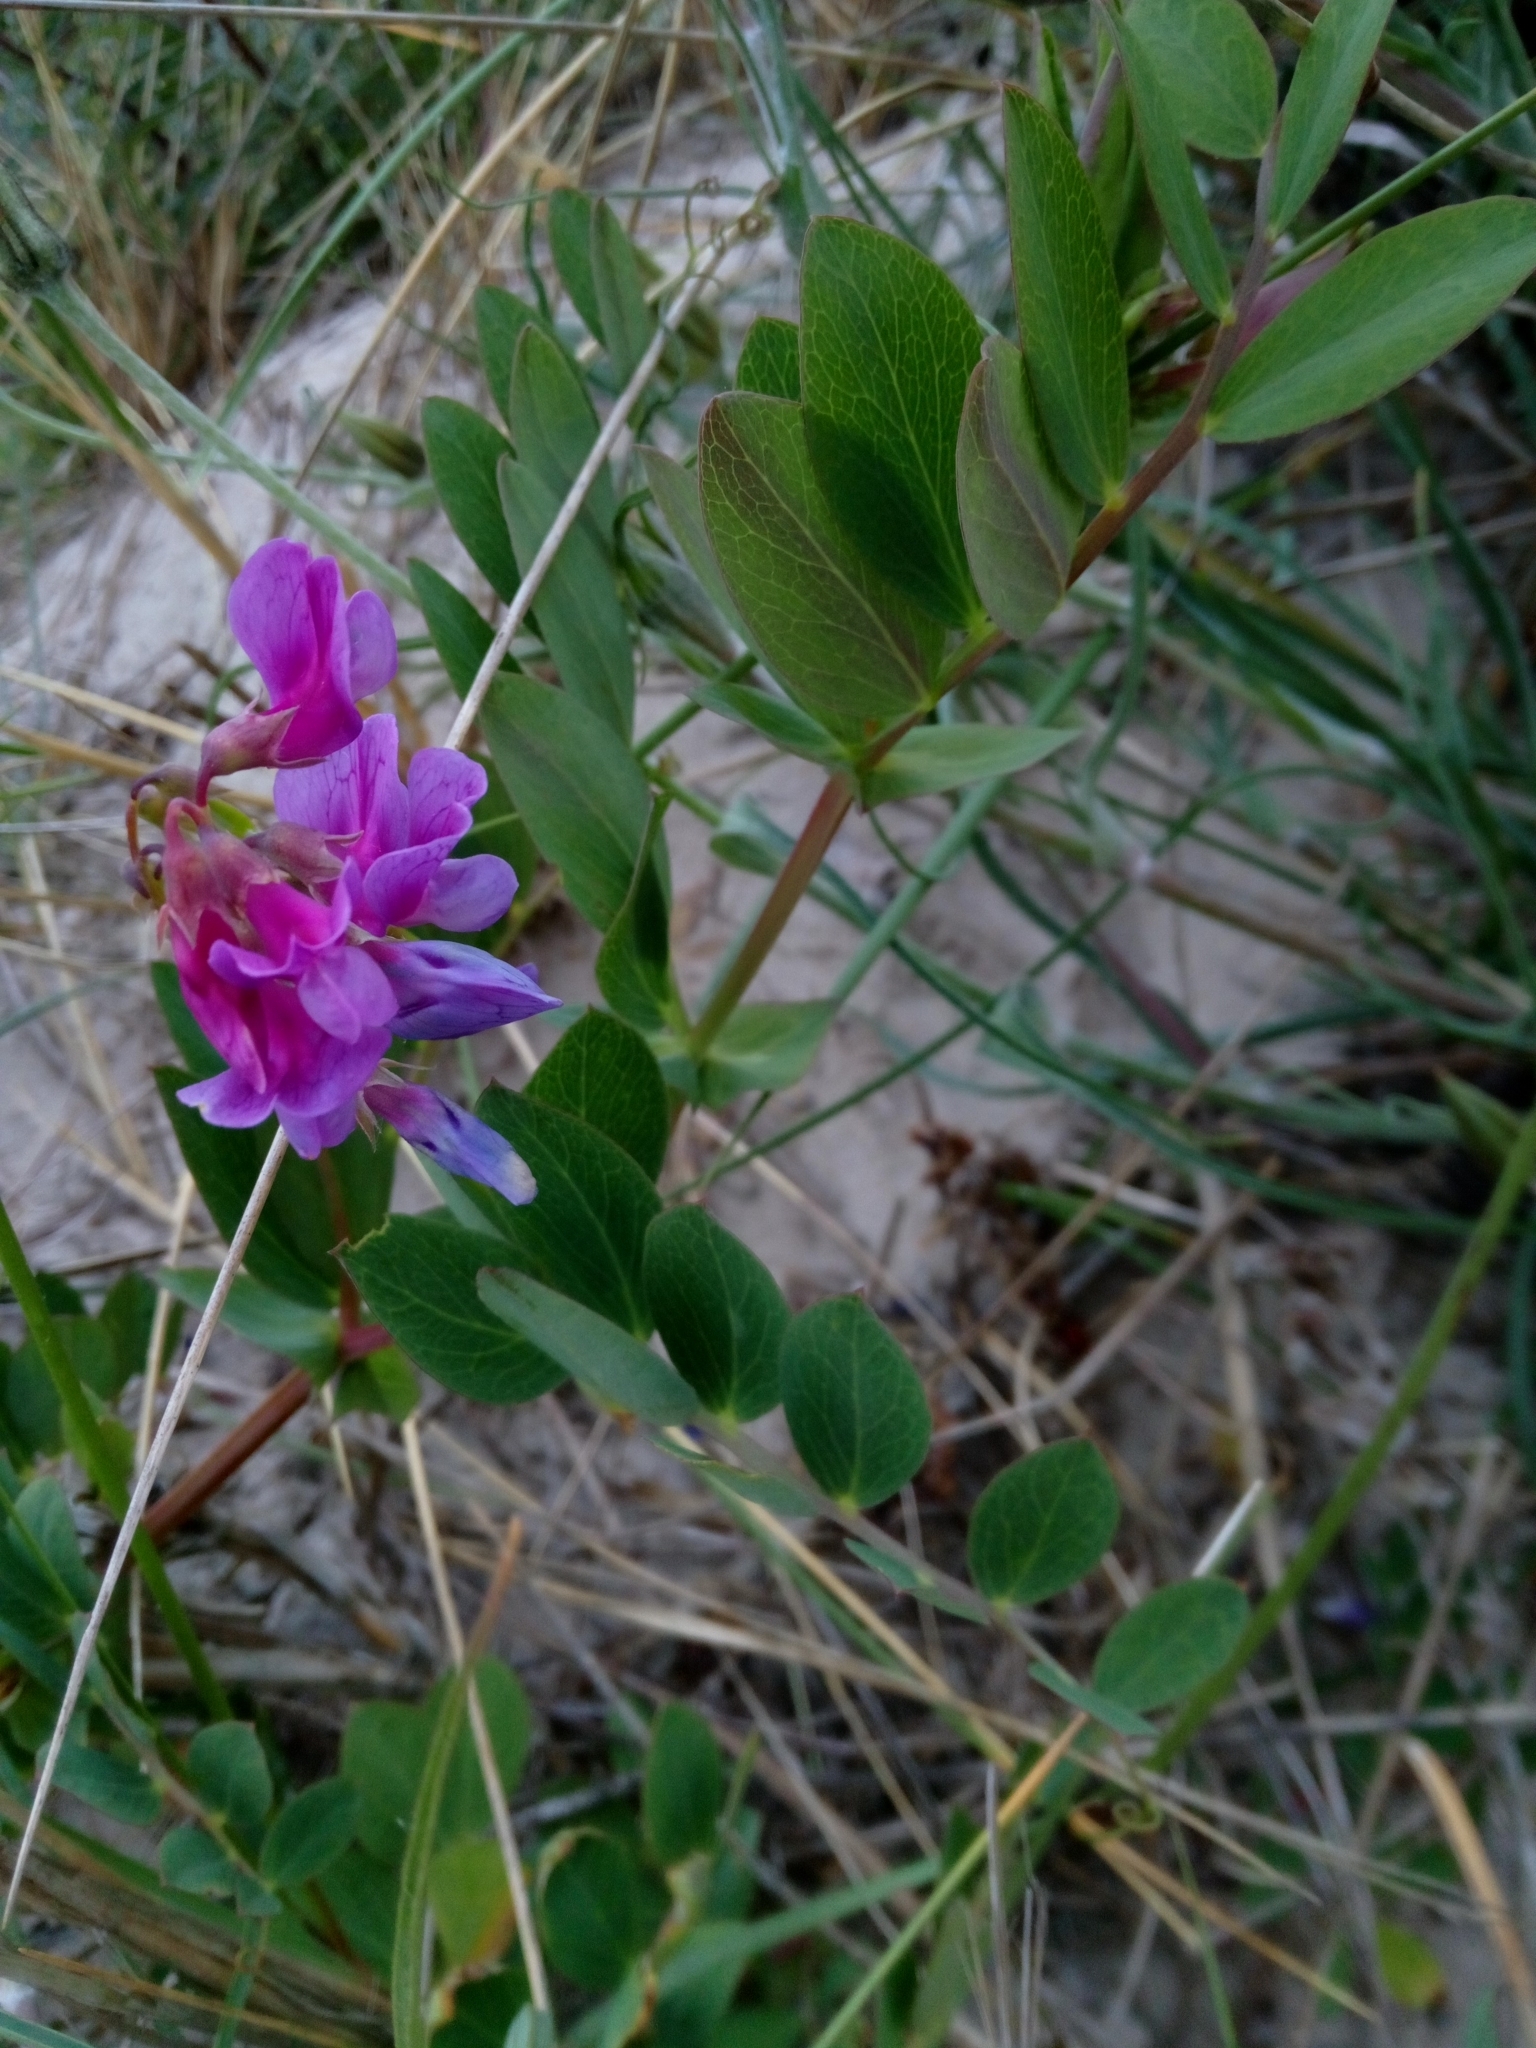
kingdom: Plantae
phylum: Tracheophyta
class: Magnoliopsida
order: Fabales
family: Fabaceae
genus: Lathyrus
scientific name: Lathyrus japonicus
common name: Sea pea
